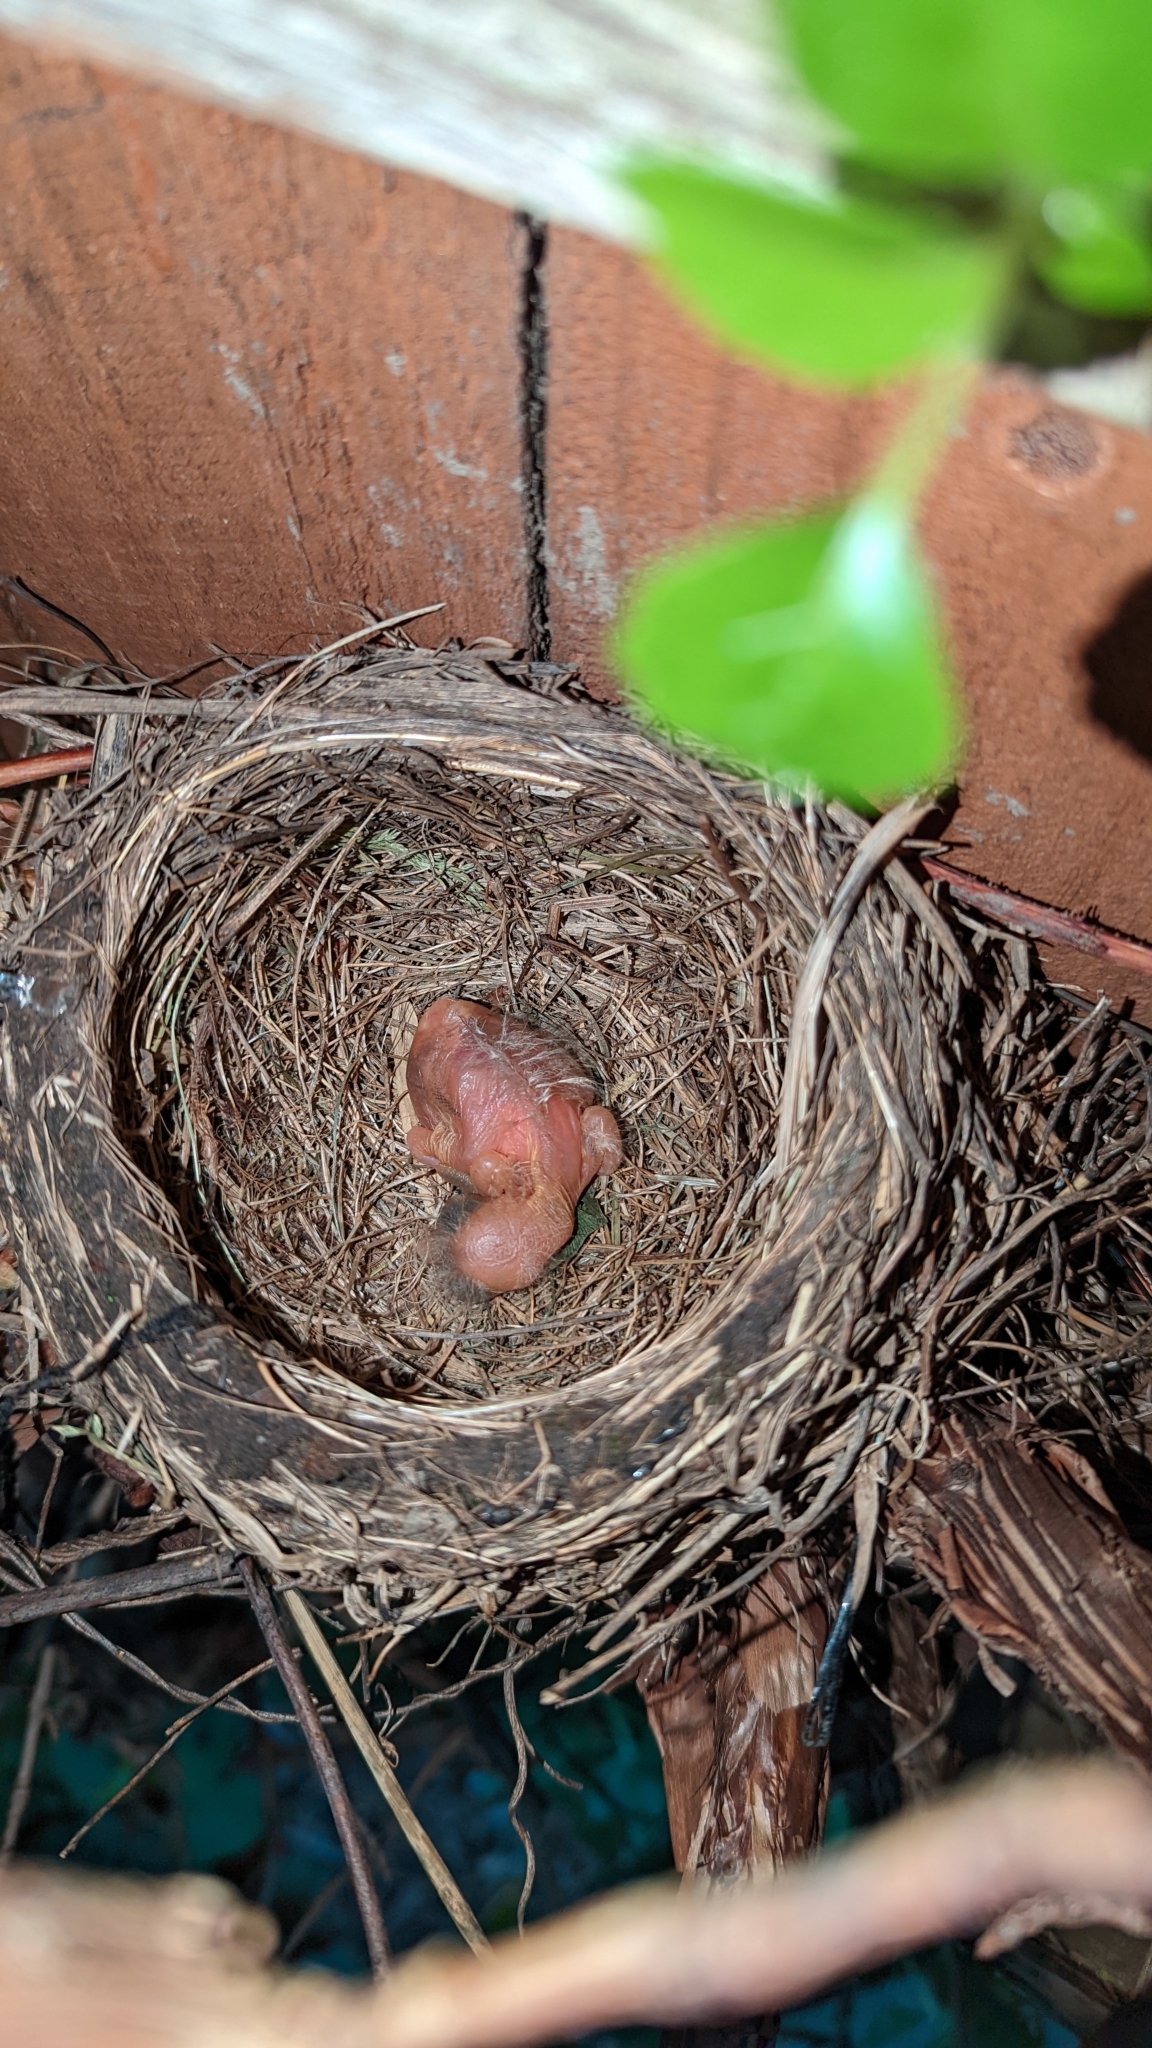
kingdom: Animalia
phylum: Chordata
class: Aves
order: Passeriformes
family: Turdidae
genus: Turdus
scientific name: Turdus migratorius
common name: American robin
